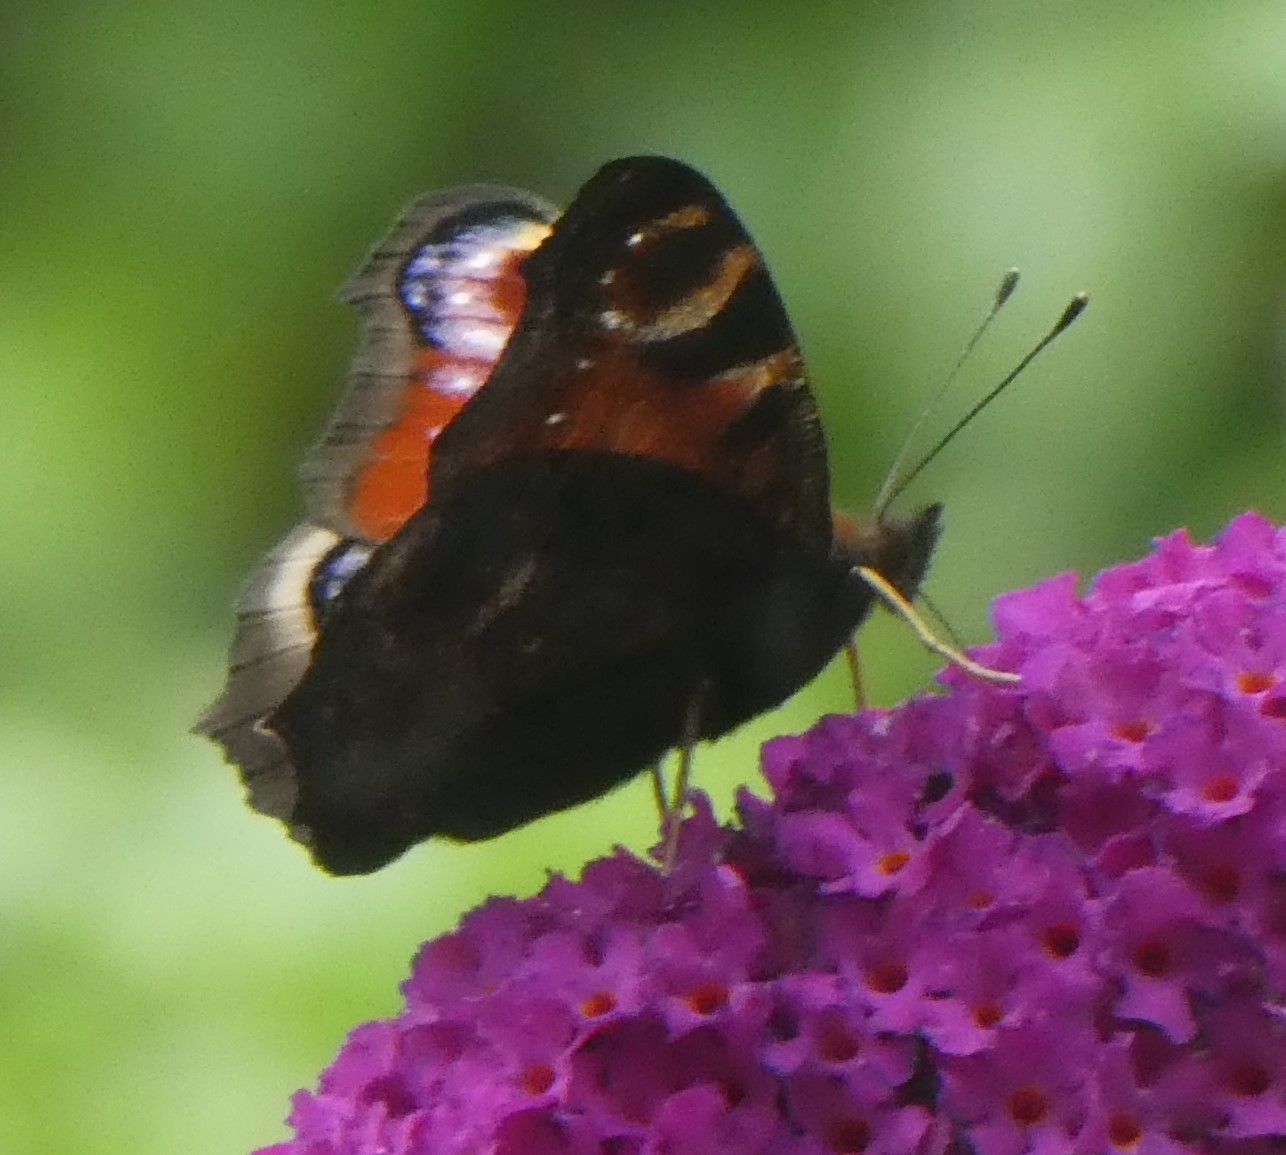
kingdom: Animalia
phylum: Arthropoda
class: Insecta
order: Lepidoptera
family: Nymphalidae
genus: Aglais
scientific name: Aglais io
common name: Peacock
